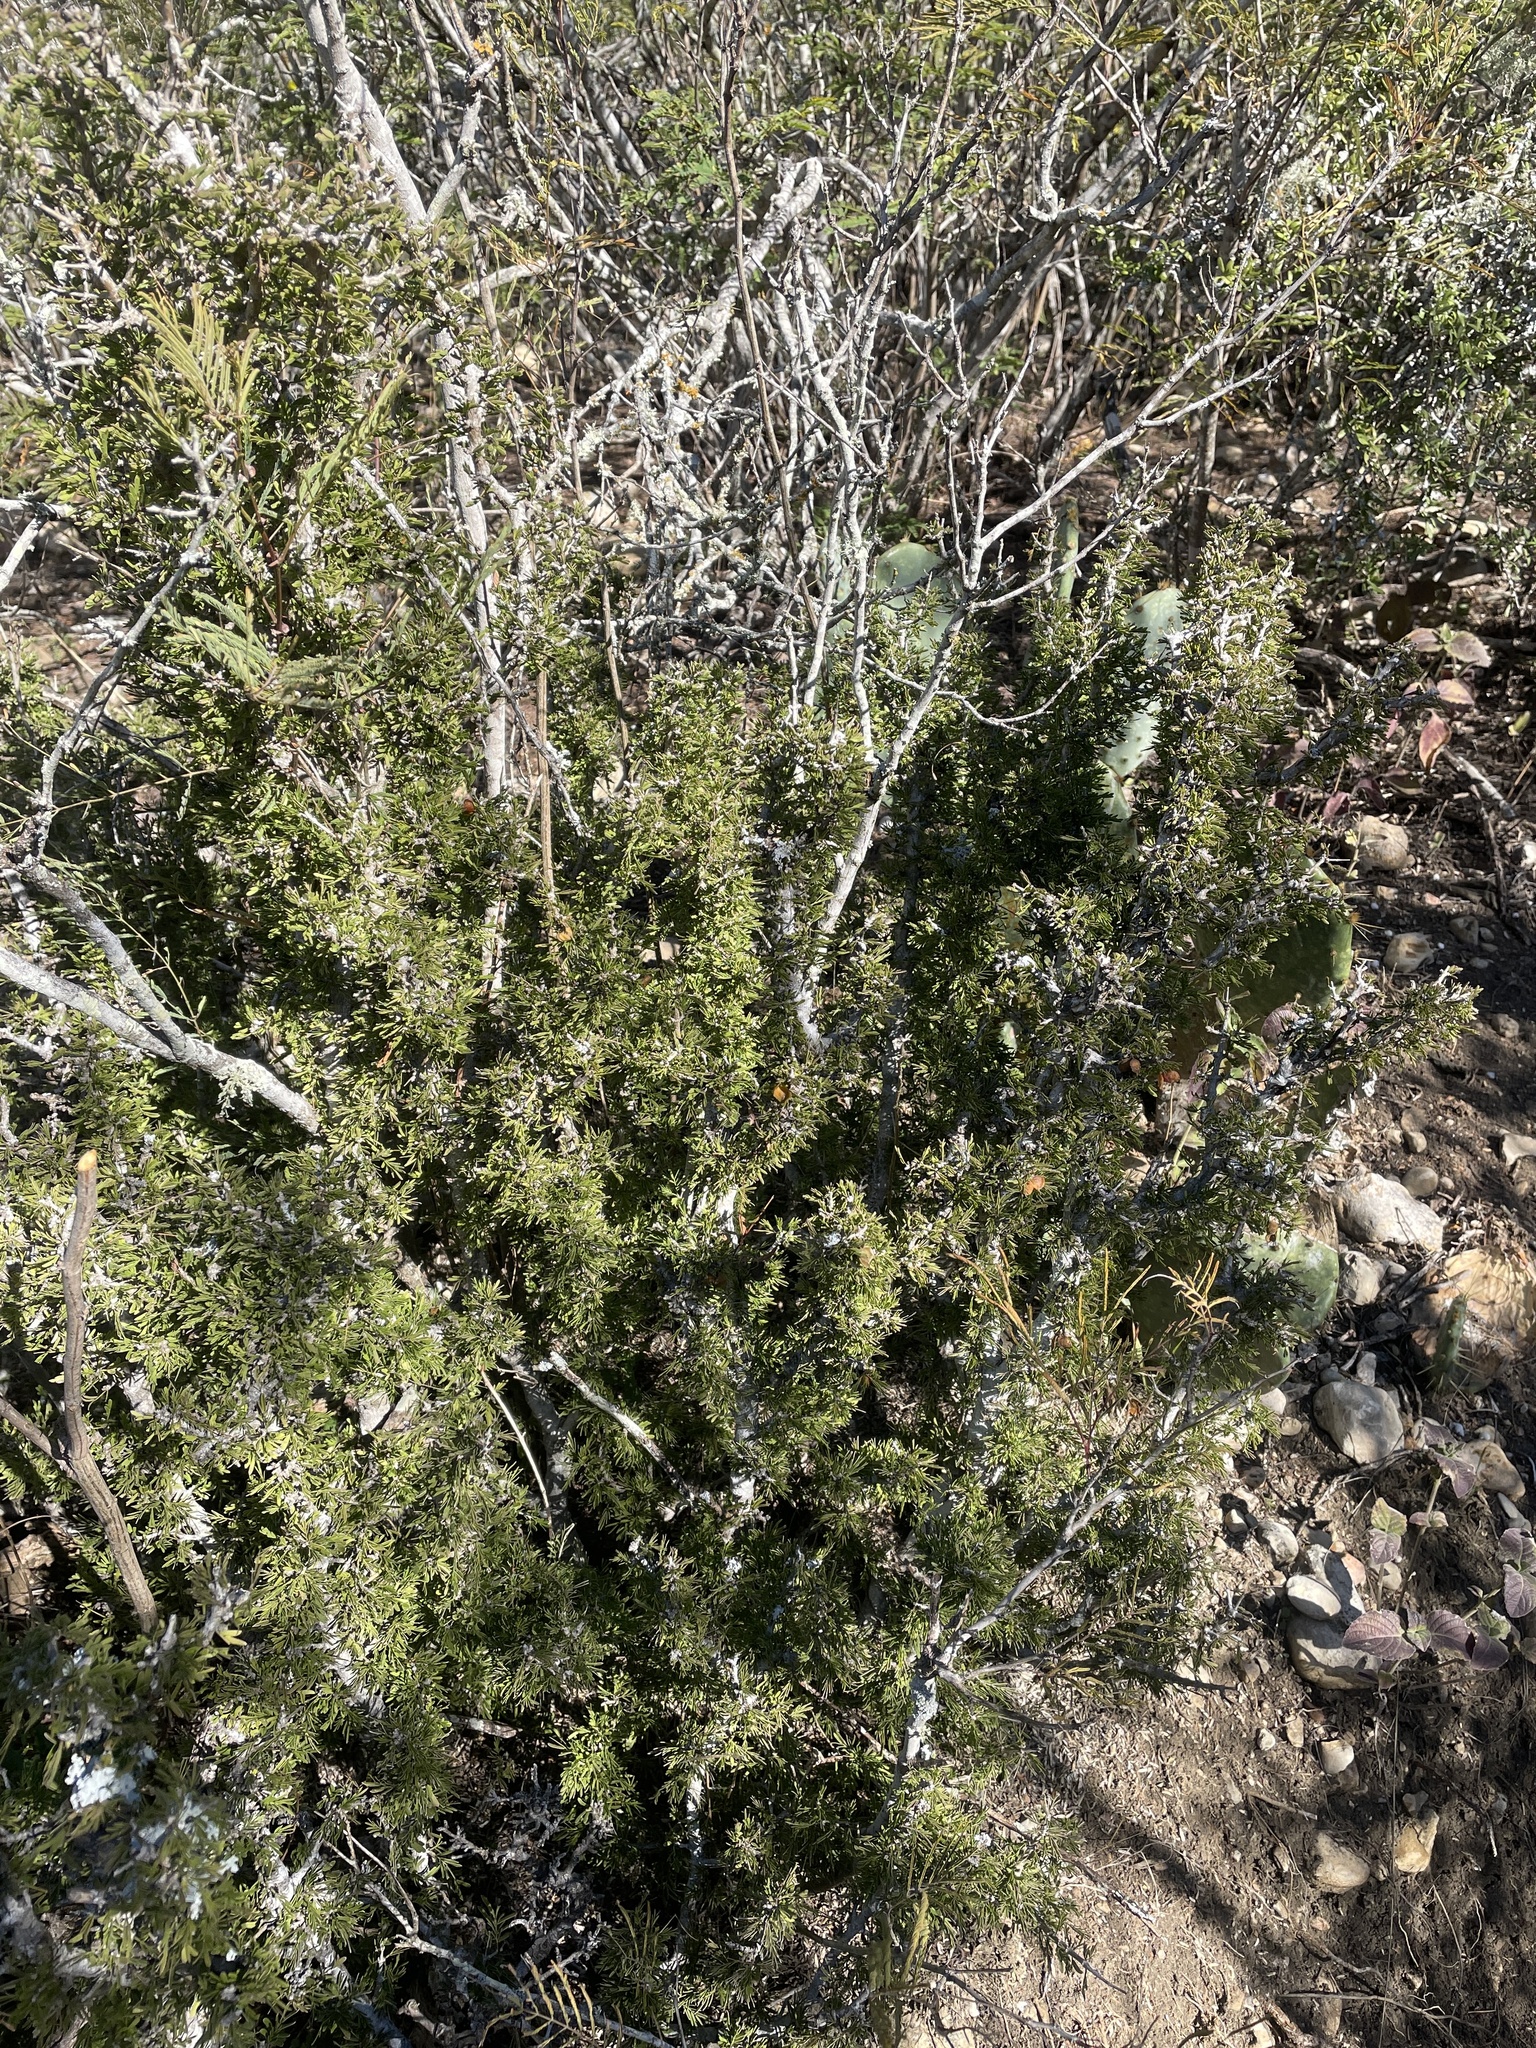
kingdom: Plantae
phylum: Tracheophyta
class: Magnoliopsida
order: Zygophyllales
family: Zygophyllaceae
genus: Porlieria
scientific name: Porlieria angustifolia
